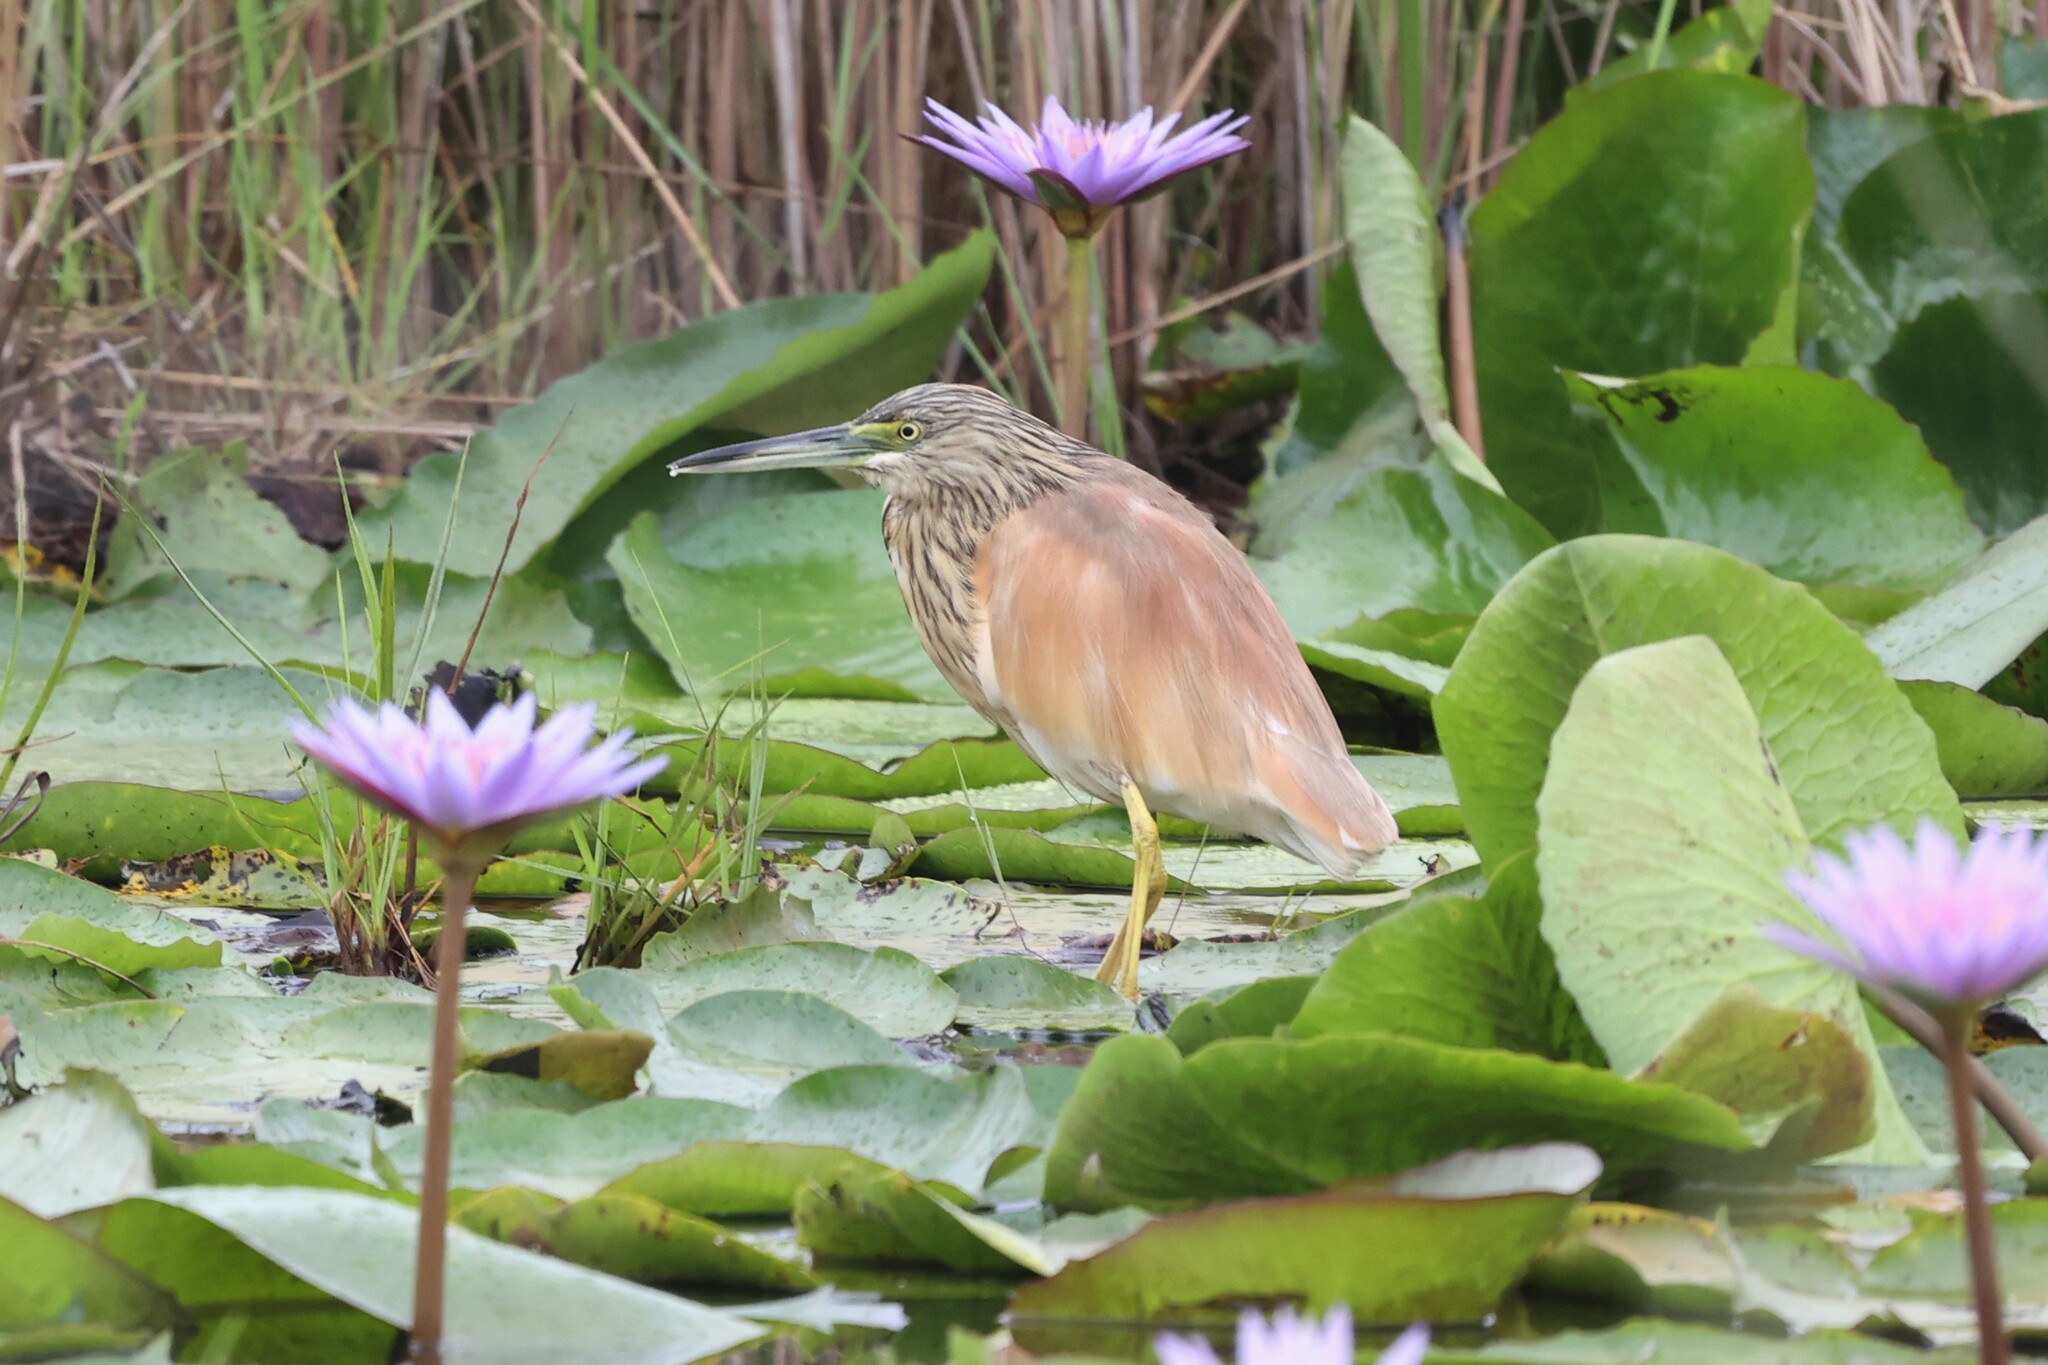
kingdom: Animalia
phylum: Chordata
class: Aves
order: Pelecaniformes
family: Ardeidae
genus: Ardeola
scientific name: Ardeola ralloides
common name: Squacco heron
